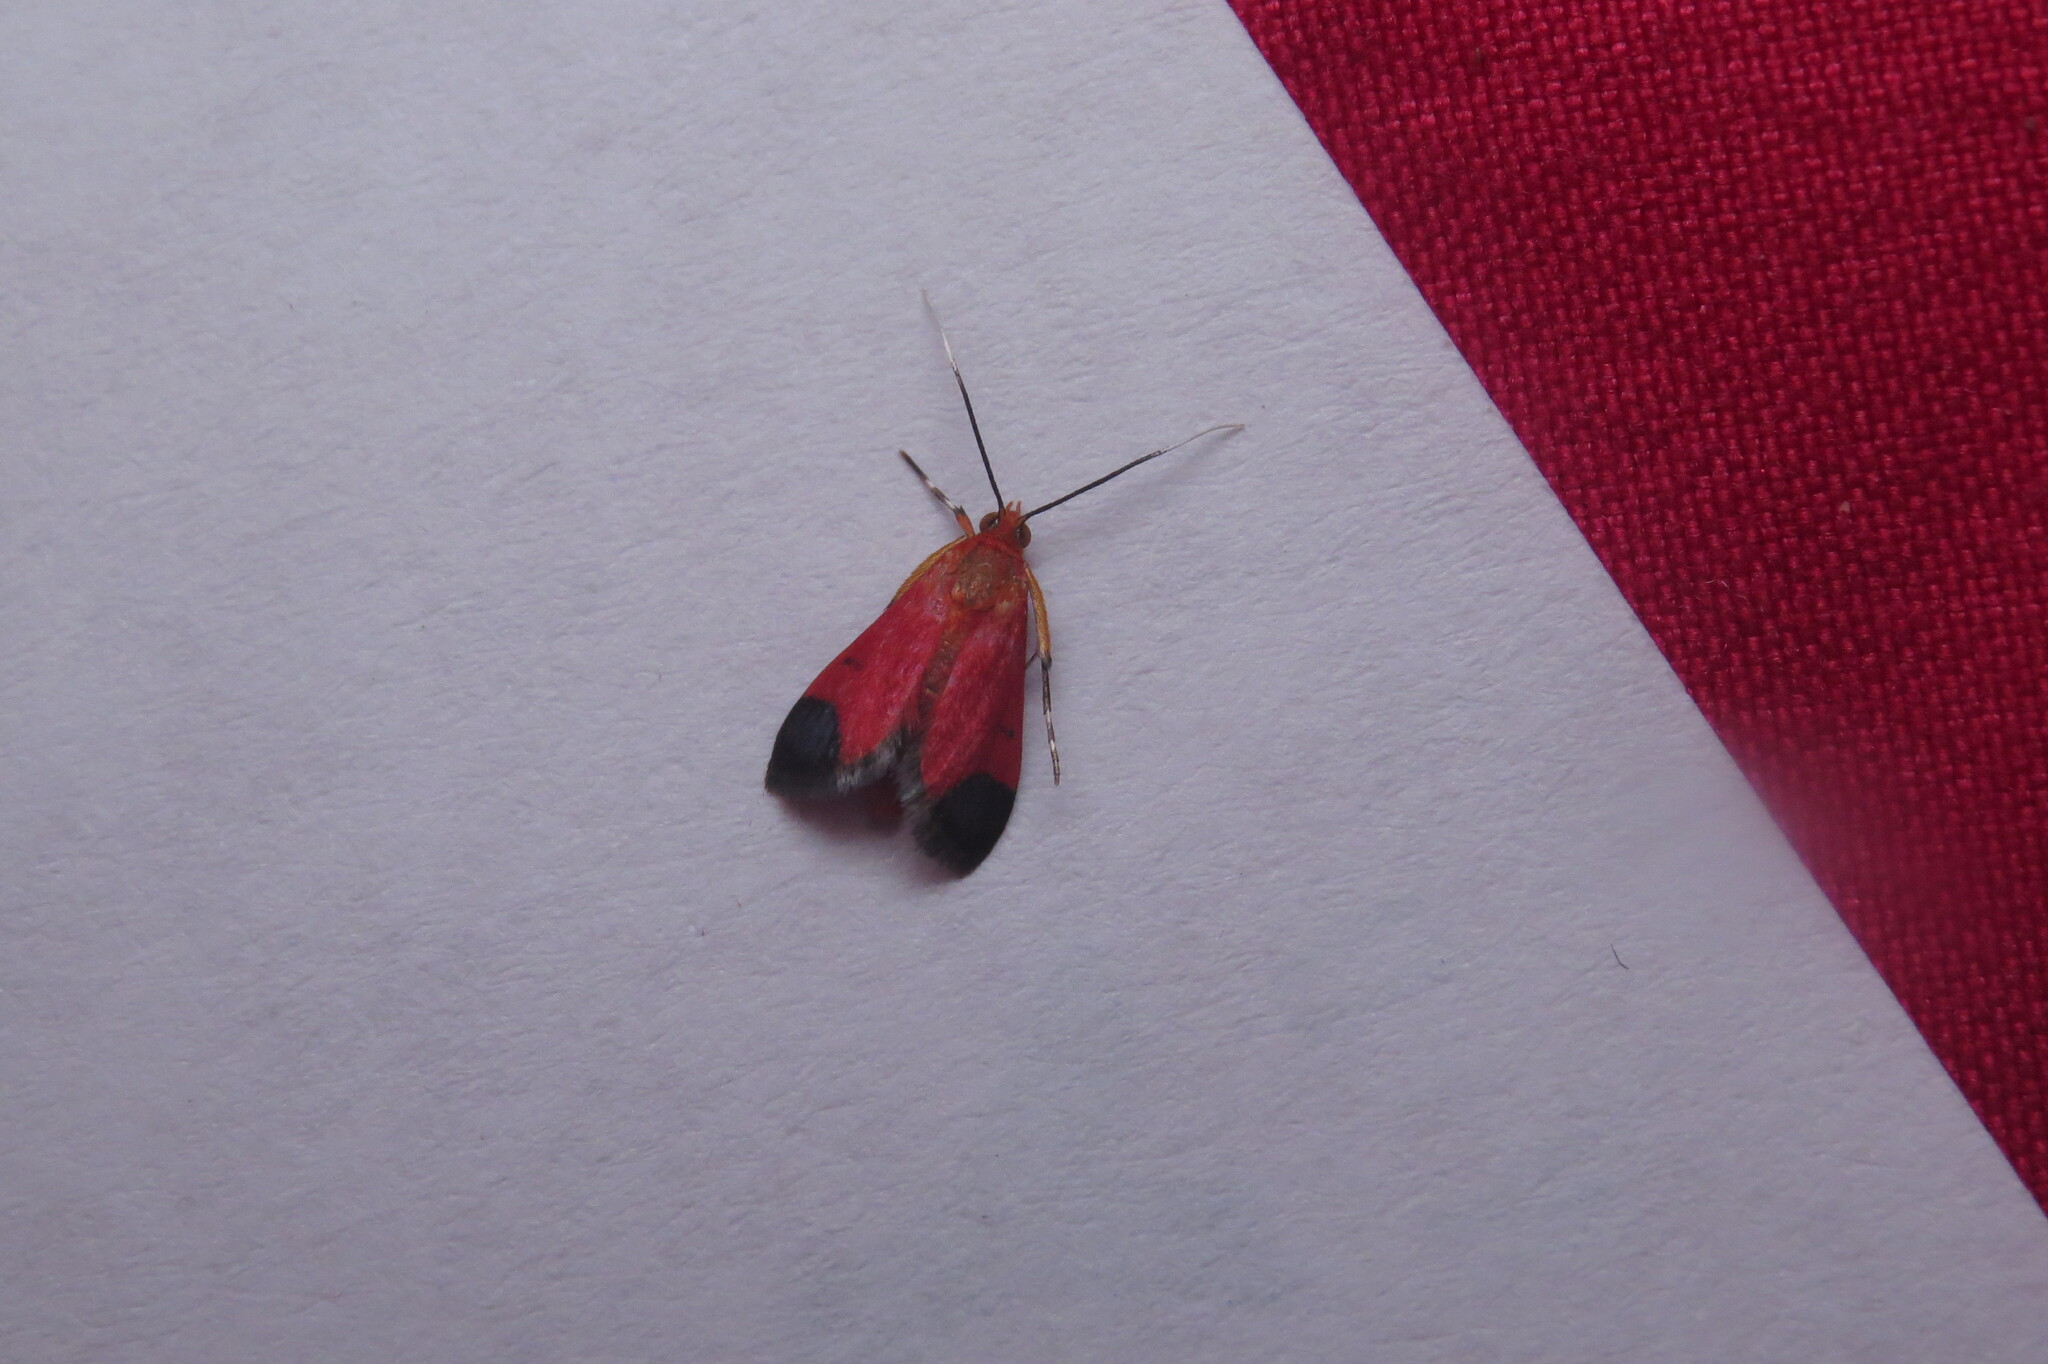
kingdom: Animalia
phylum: Arthropoda
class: Insecta
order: Lepidoptera
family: Crambidae
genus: Pyrausta
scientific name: Pyrausta cardinalis
